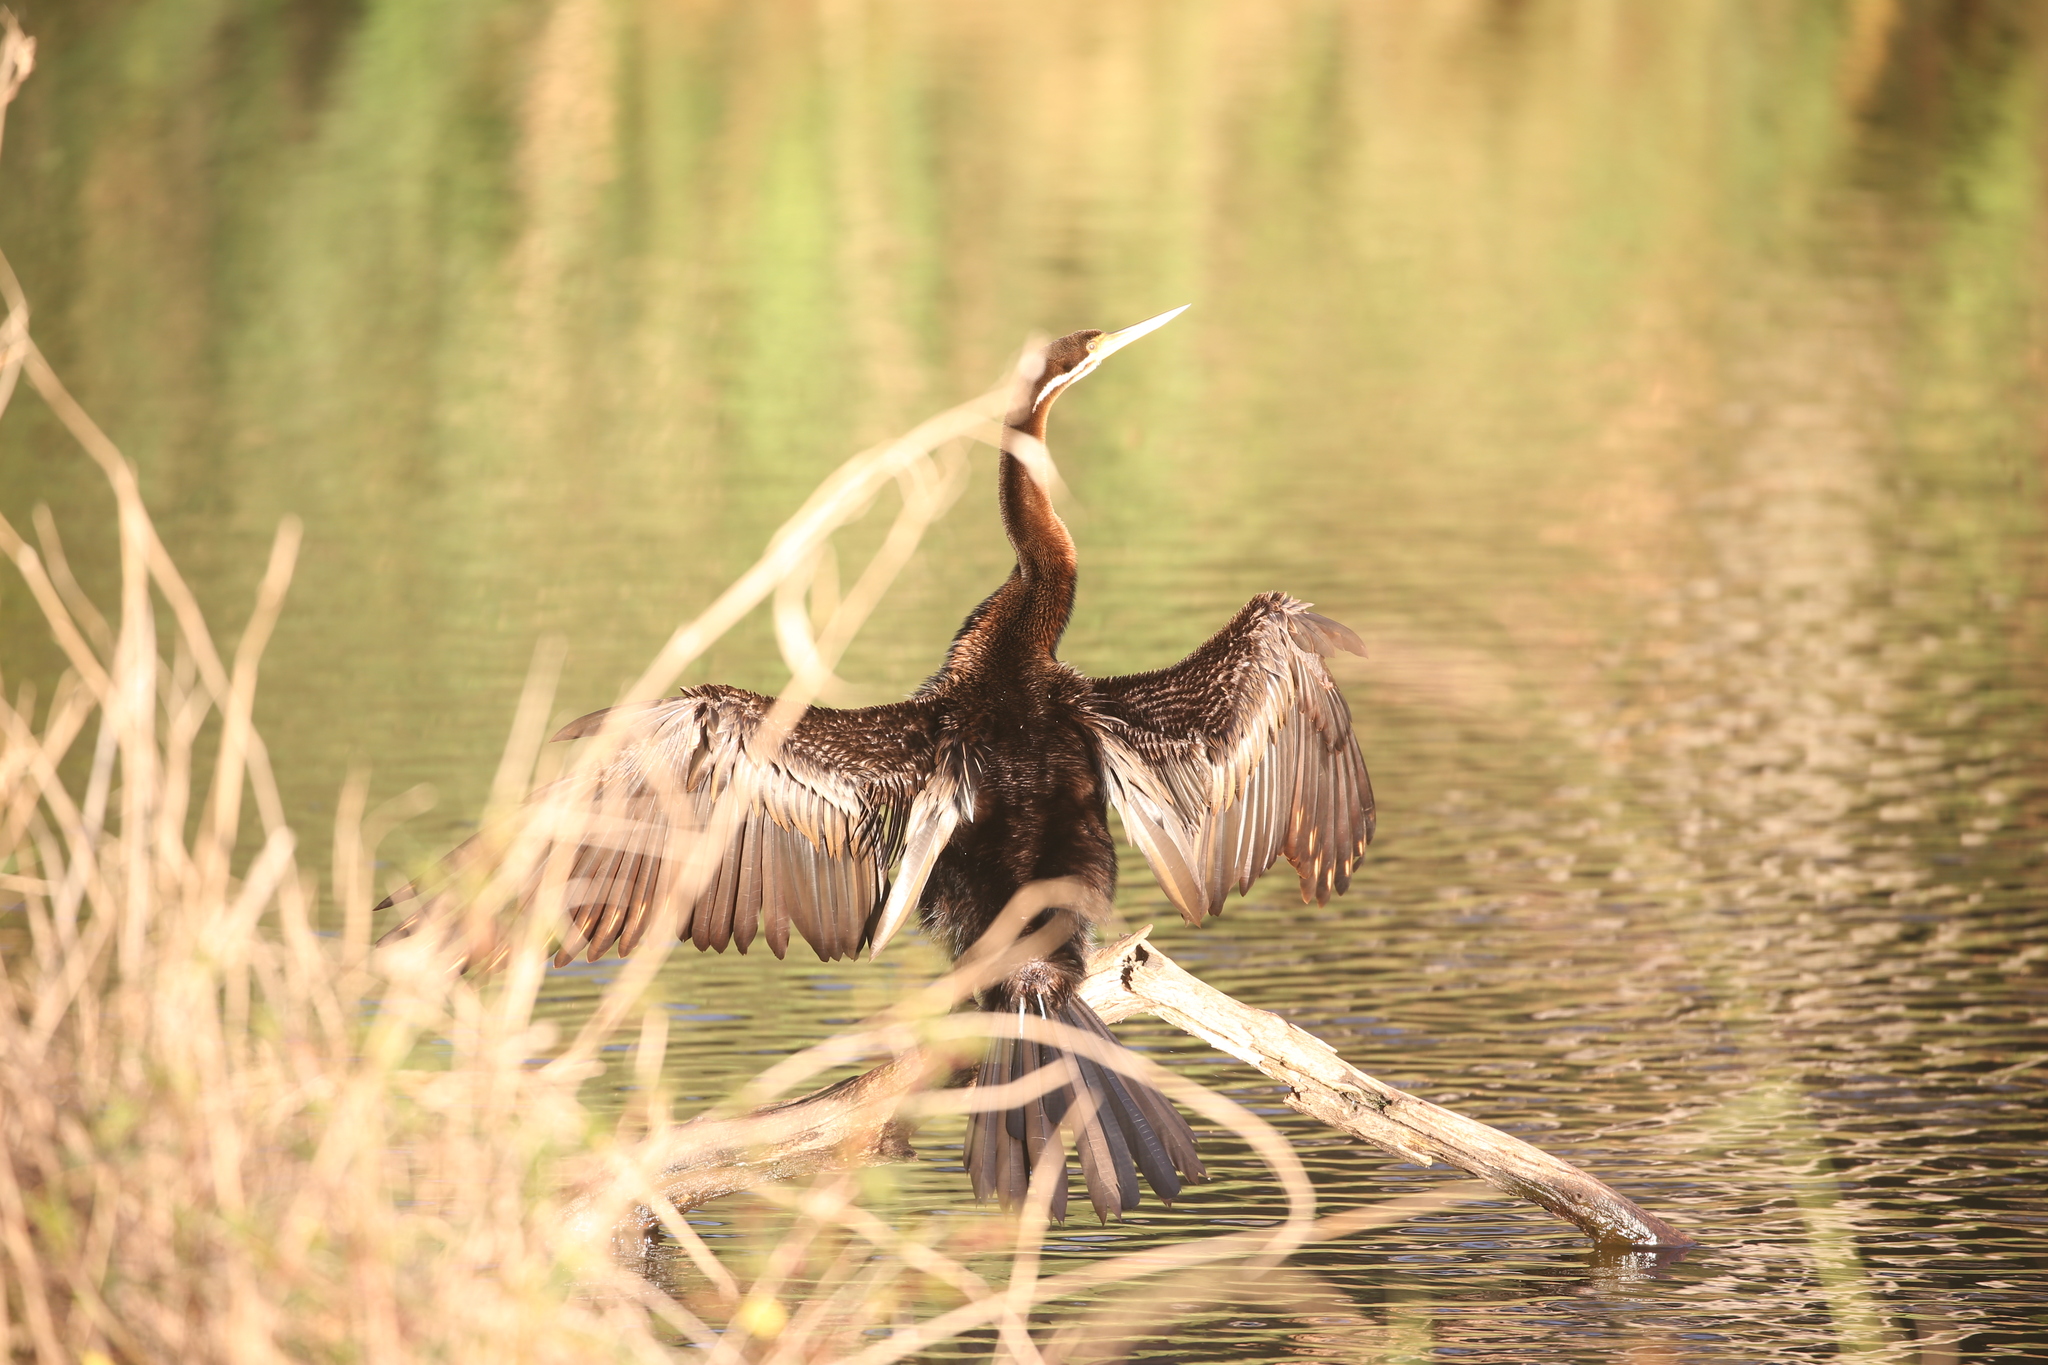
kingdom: Animalia
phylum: Chordata
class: Aves
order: Suliformes
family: Anhingidae
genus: Anhinga
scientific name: Anhinga novaehollandiae
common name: Australasian darter
